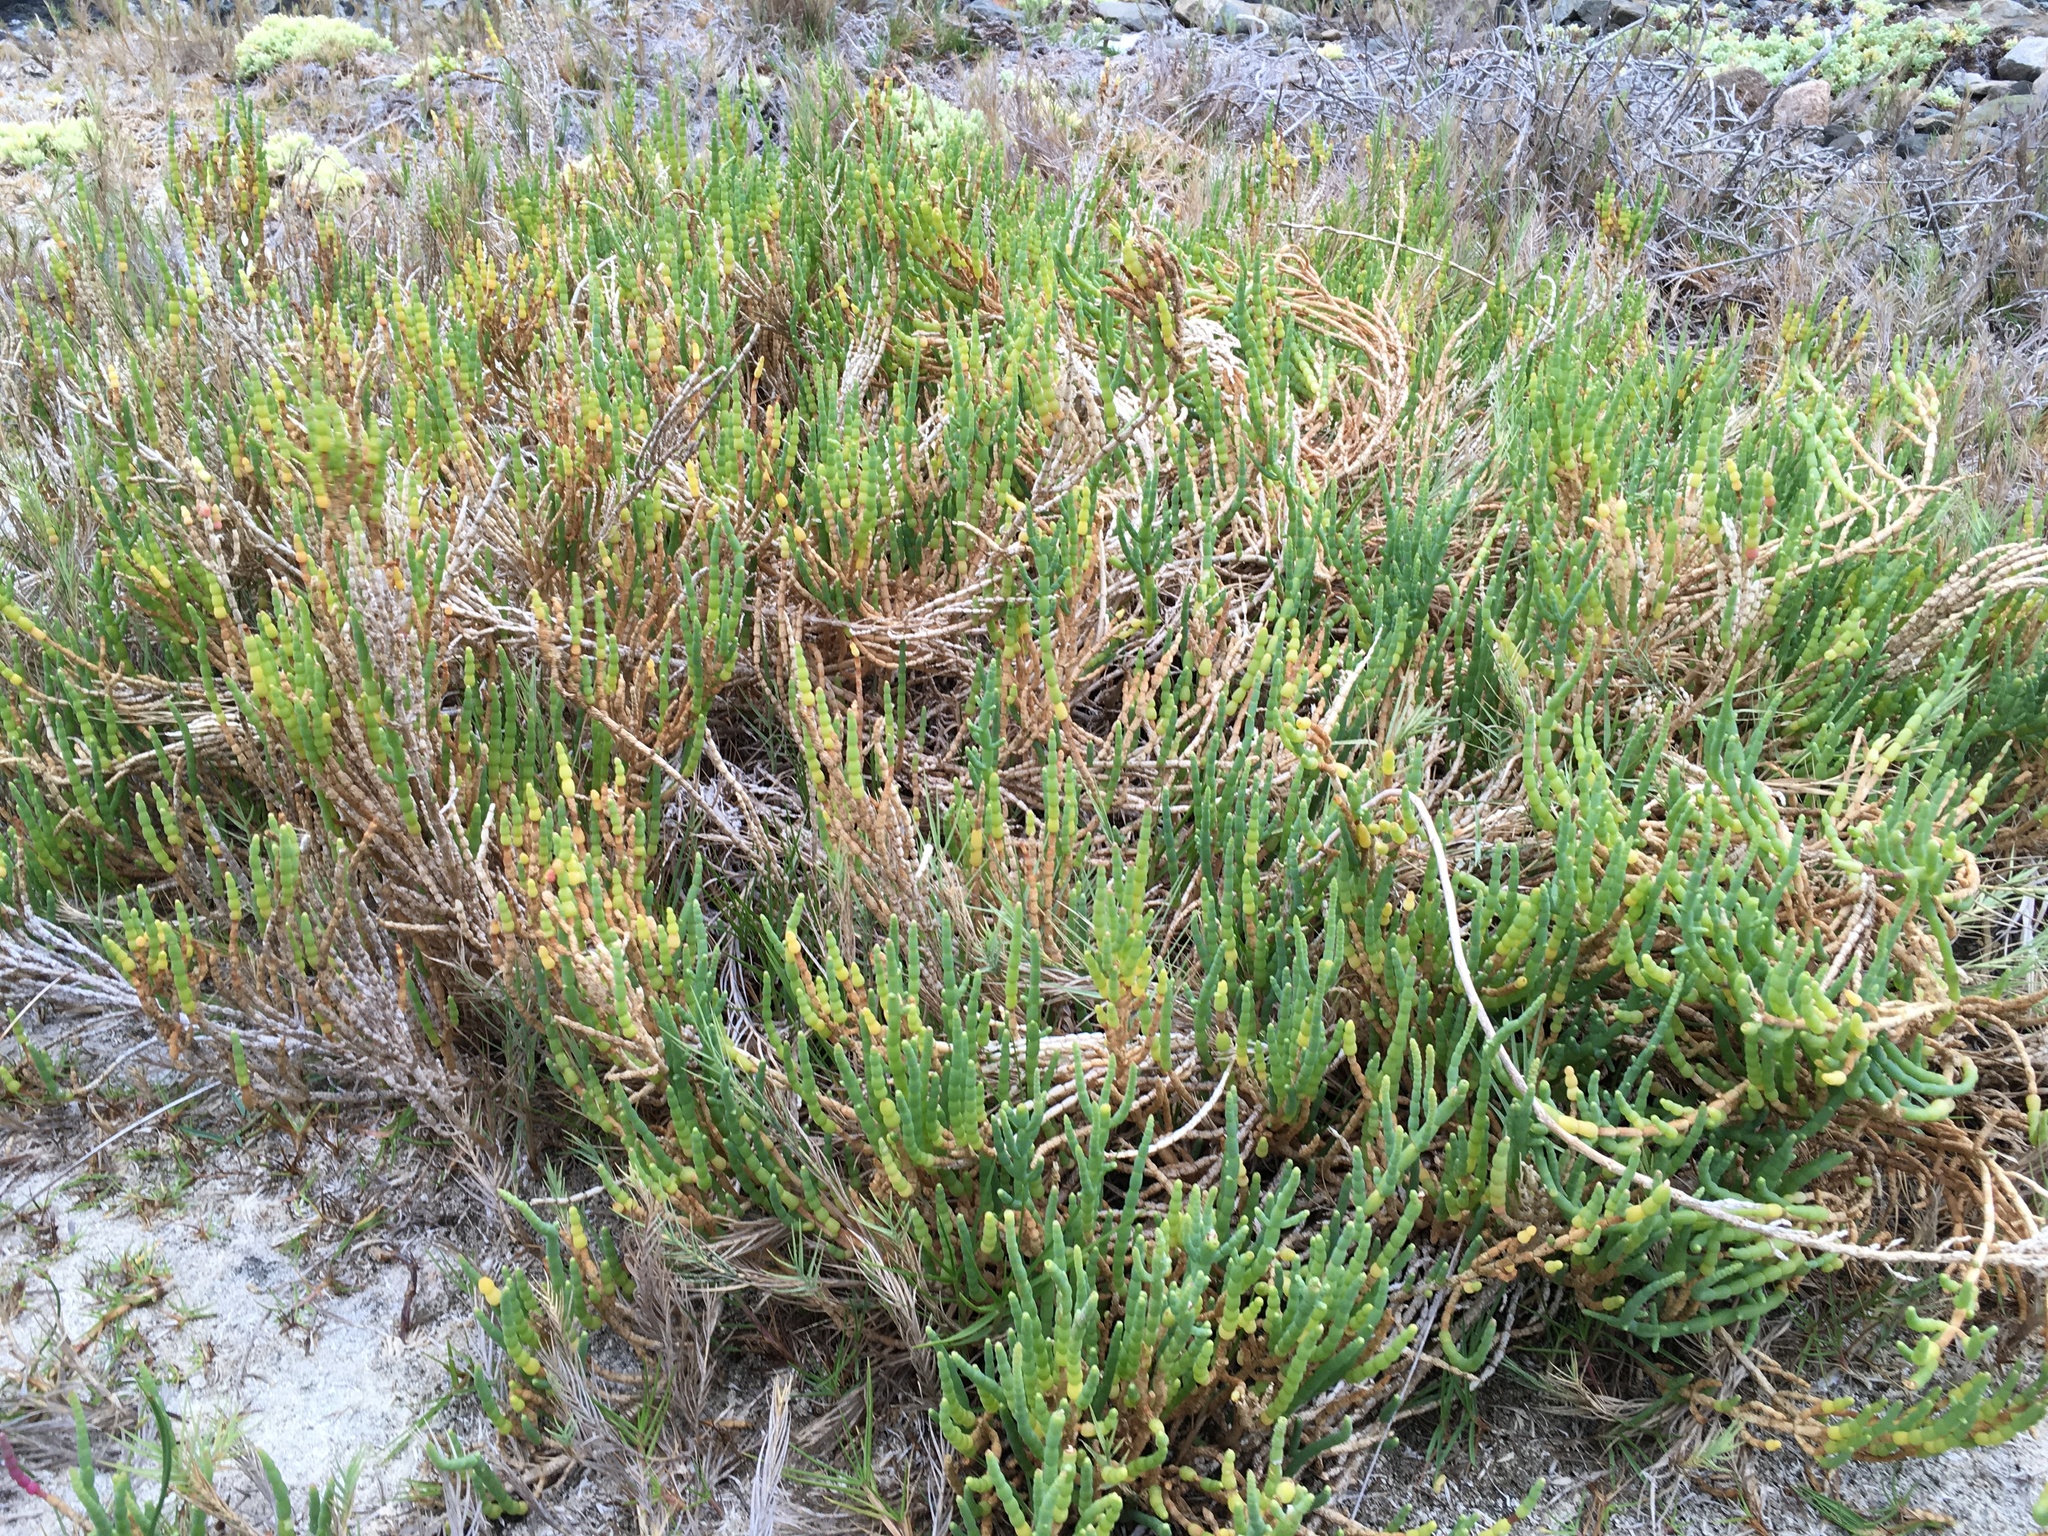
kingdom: Plantae
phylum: Tracheophyta
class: Magnoliopsida
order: Caryophyllales
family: Amaranthaceae
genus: Salicornia
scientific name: Salicornia neei
